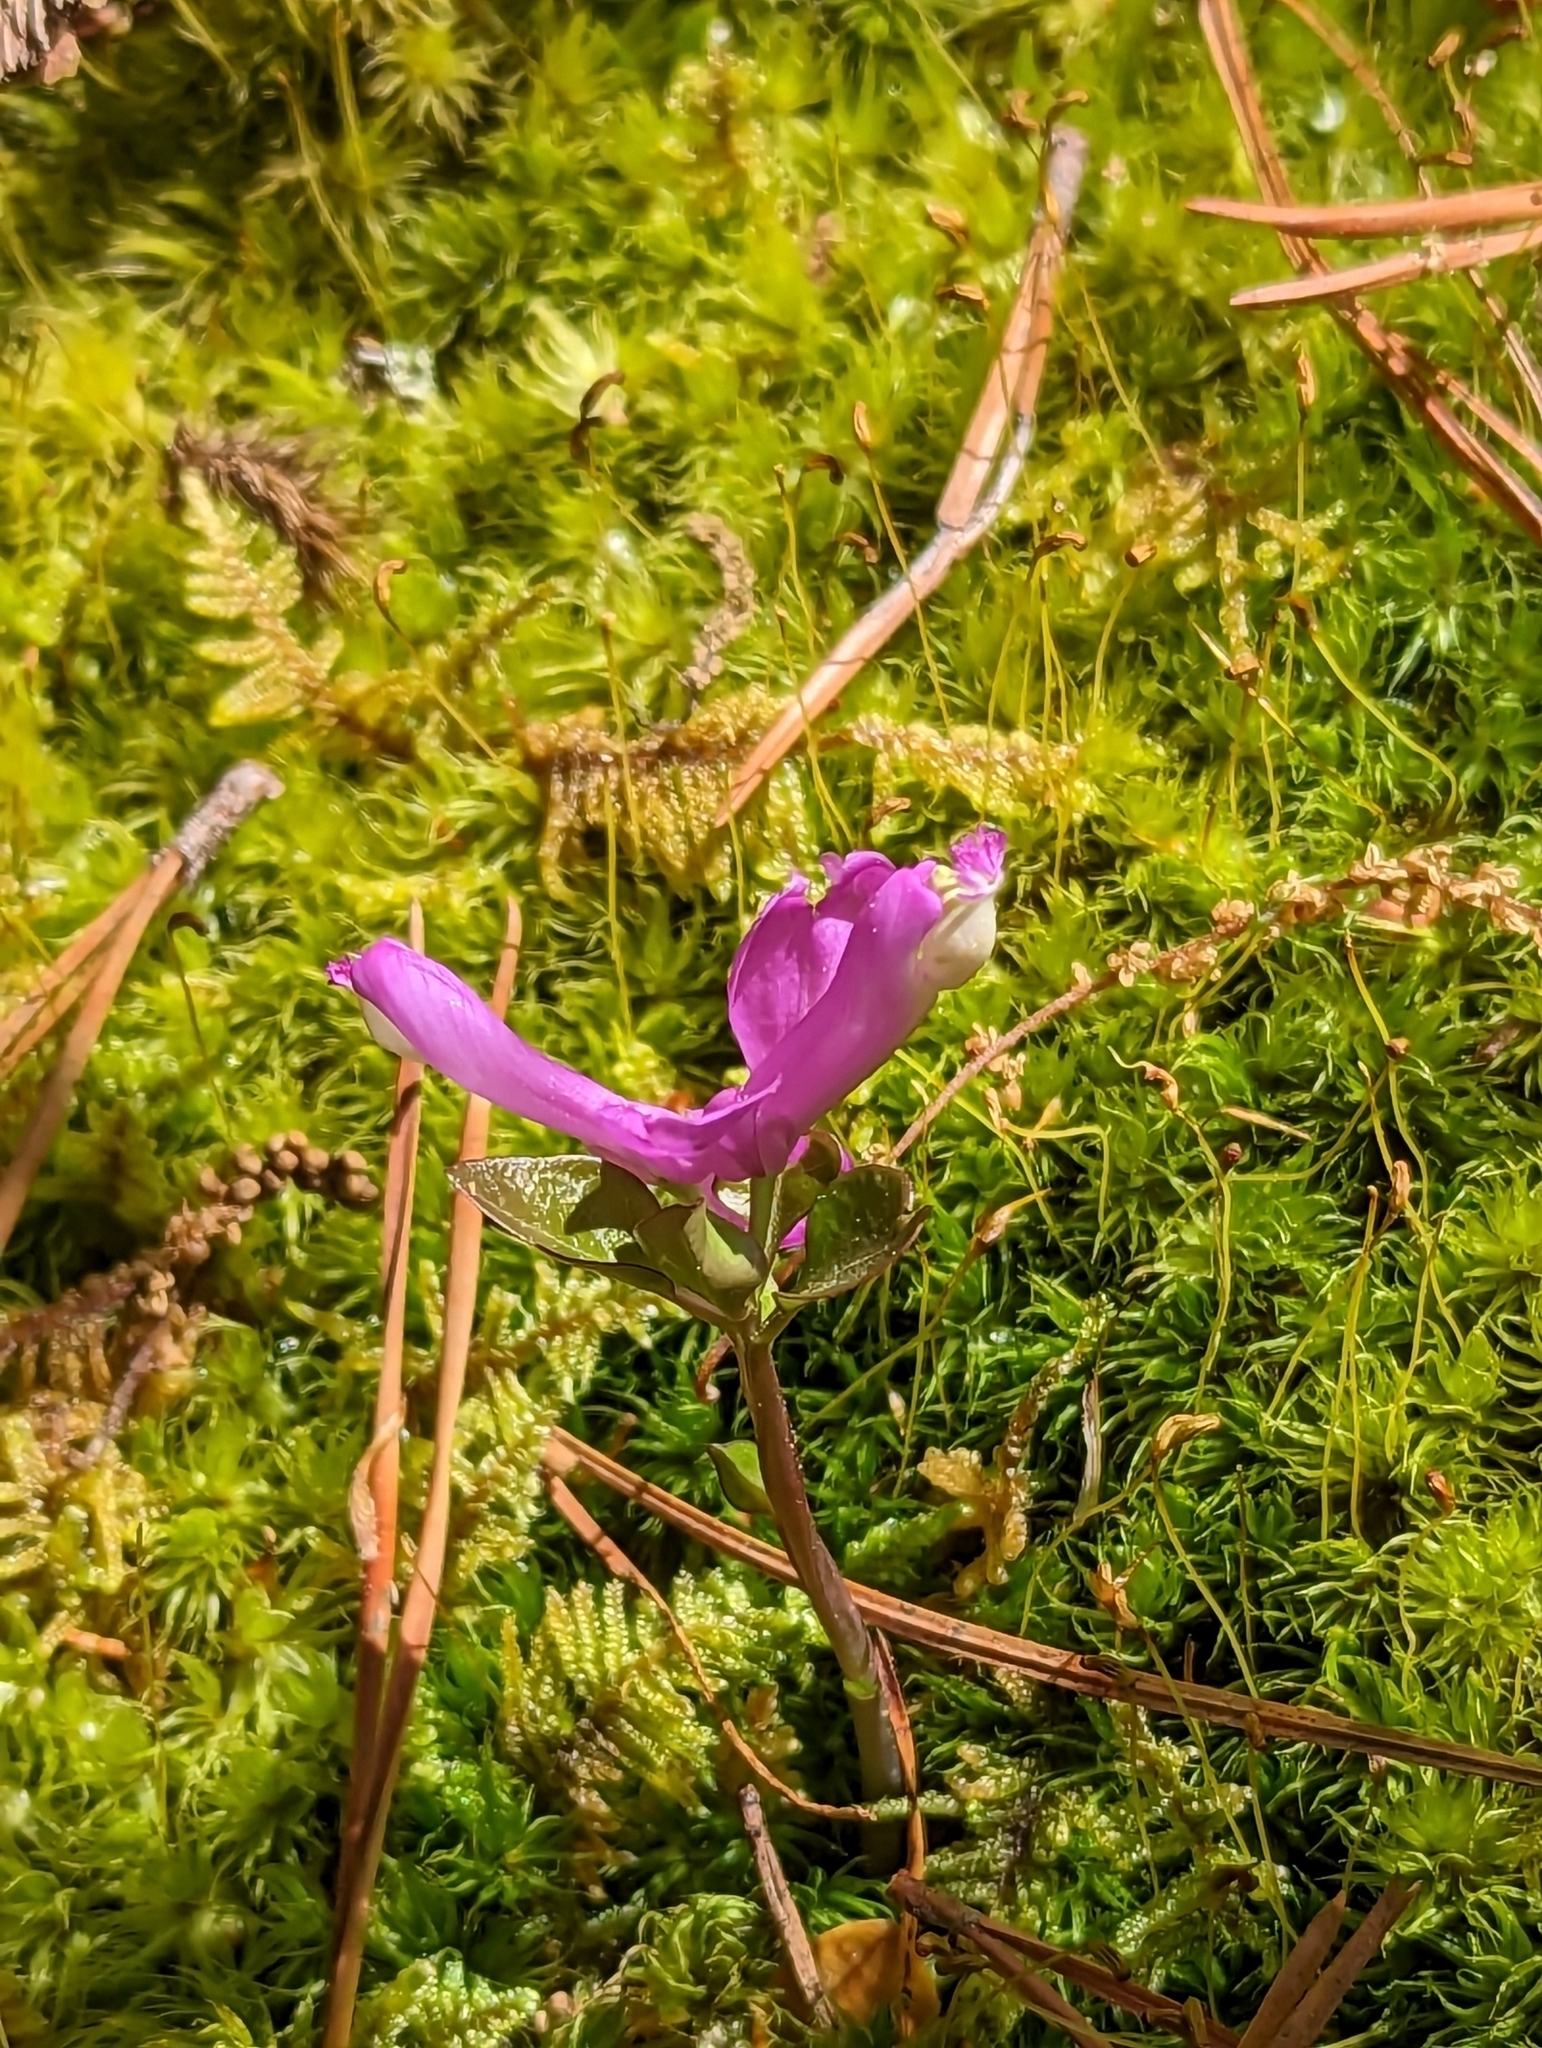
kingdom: Plantae
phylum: Tracheophyta
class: Magnoliopsida
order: Fabales
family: Polygalaceae
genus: Polygaloides
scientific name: Polygaloides paucifolia
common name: Bird-on-the-wing
